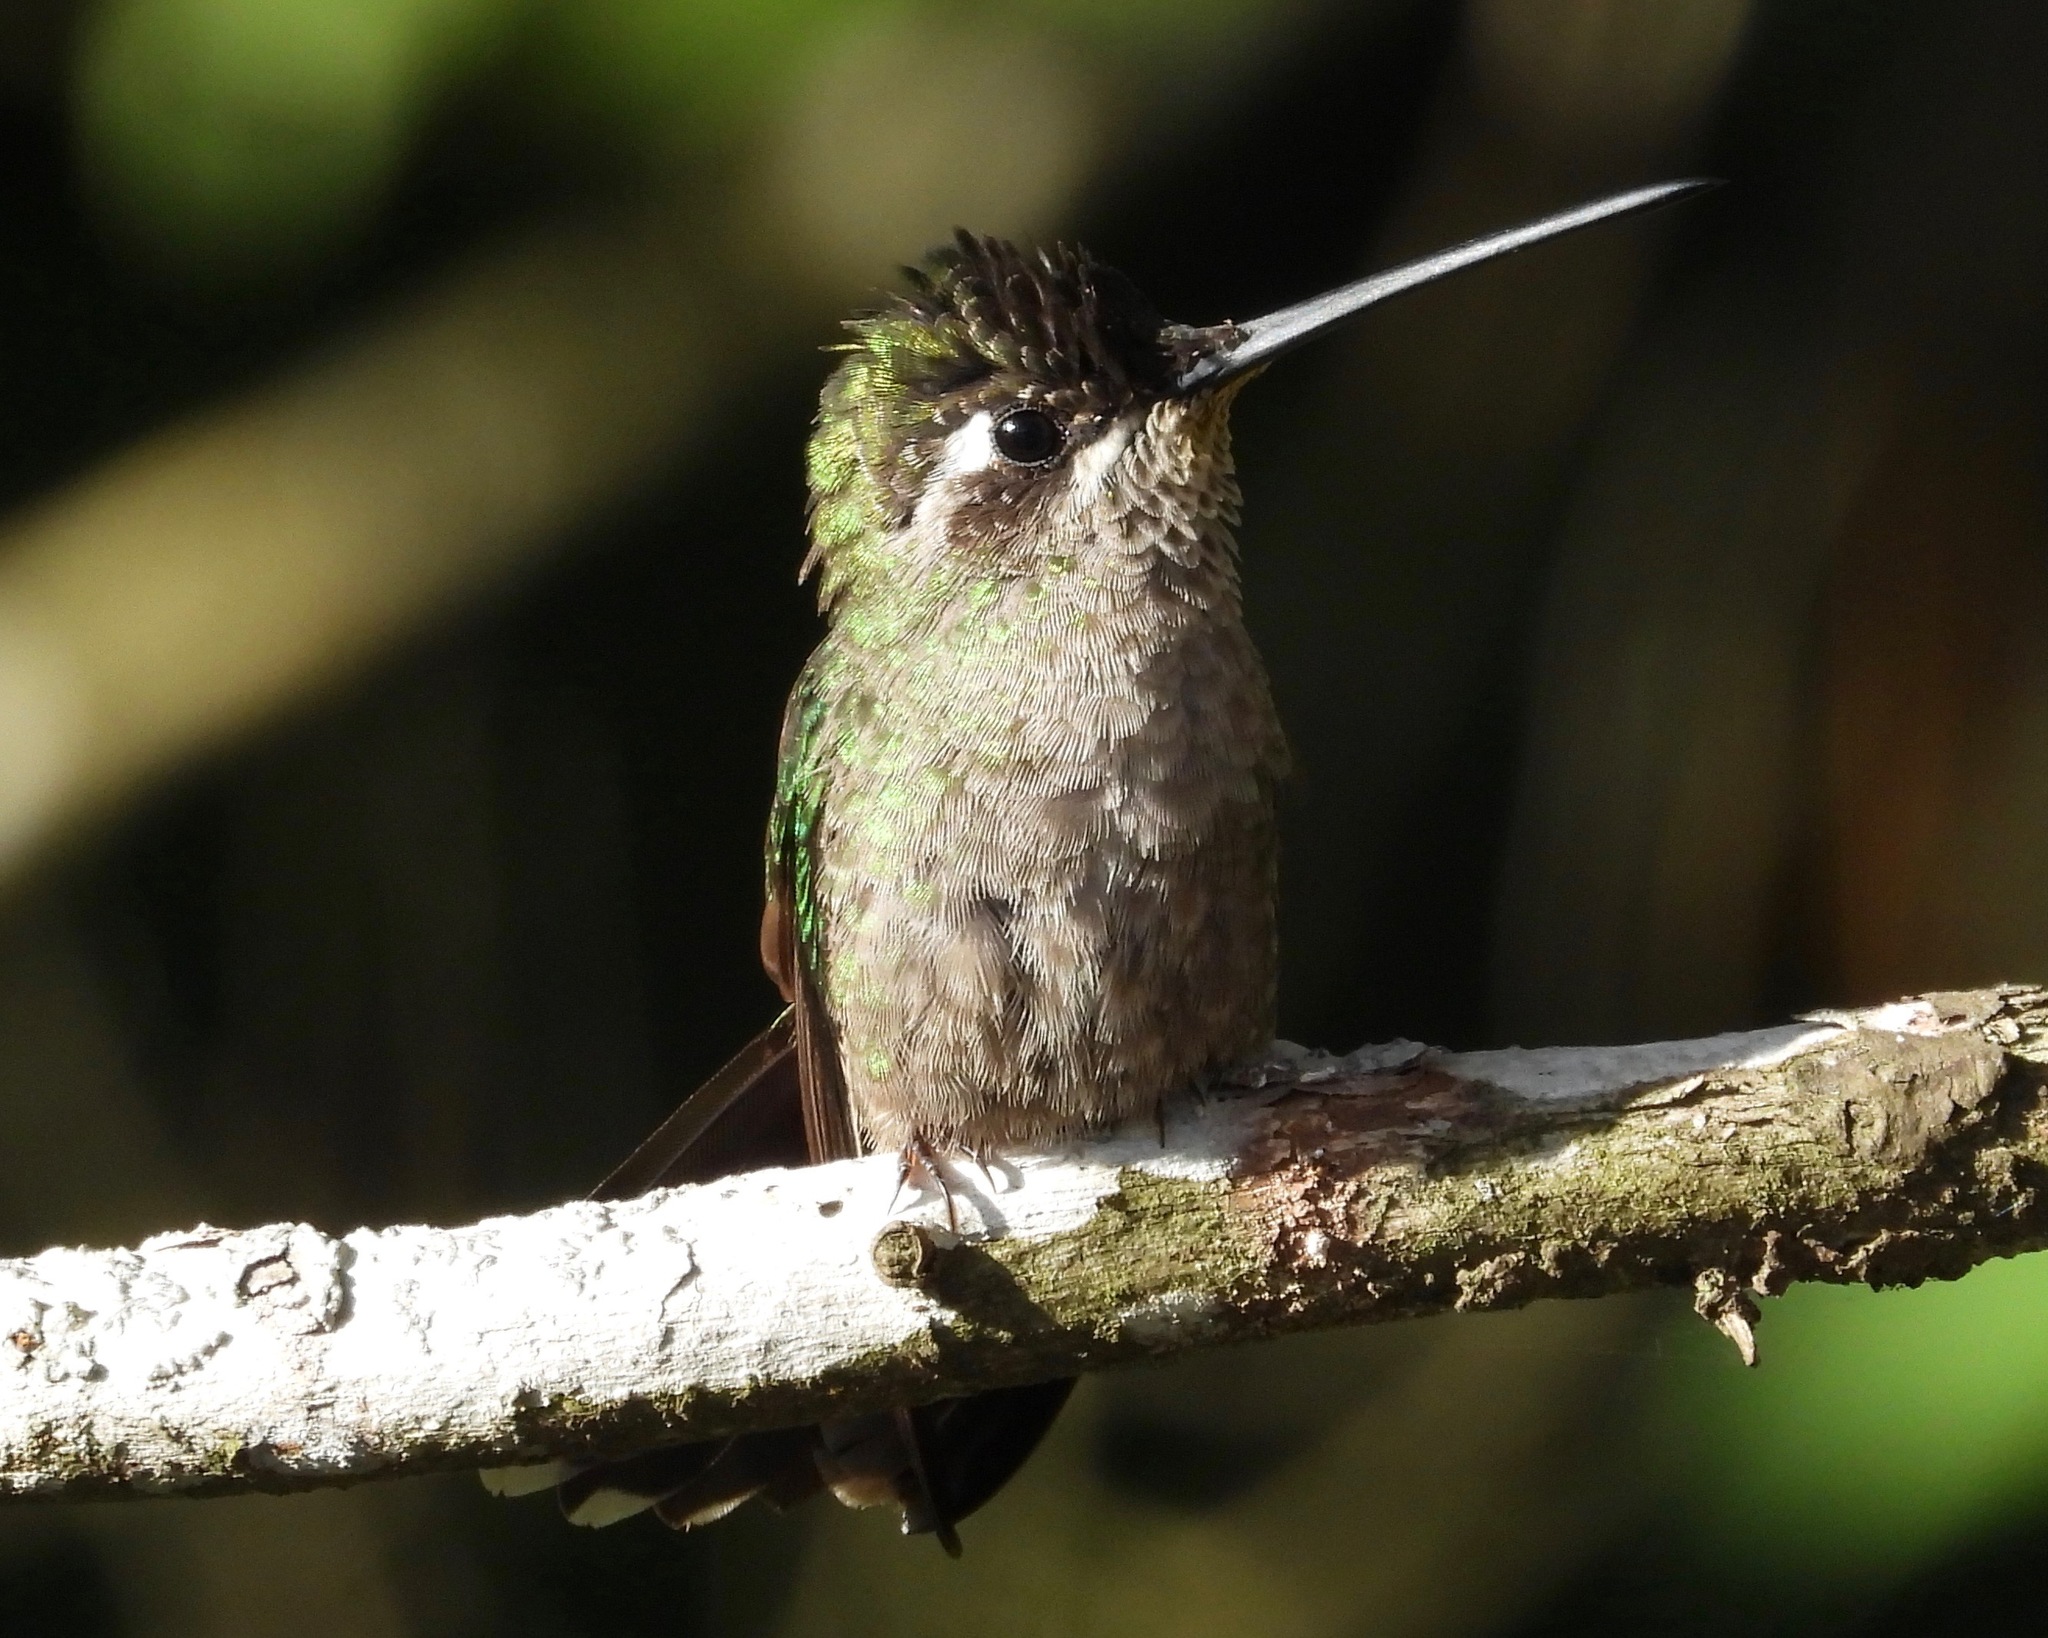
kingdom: Animalia
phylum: Chordata
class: Aves
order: Apodiformes
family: Trochilidae
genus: Eugenes
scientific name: Eugenes fulgens
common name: Magnificent hummingbird
